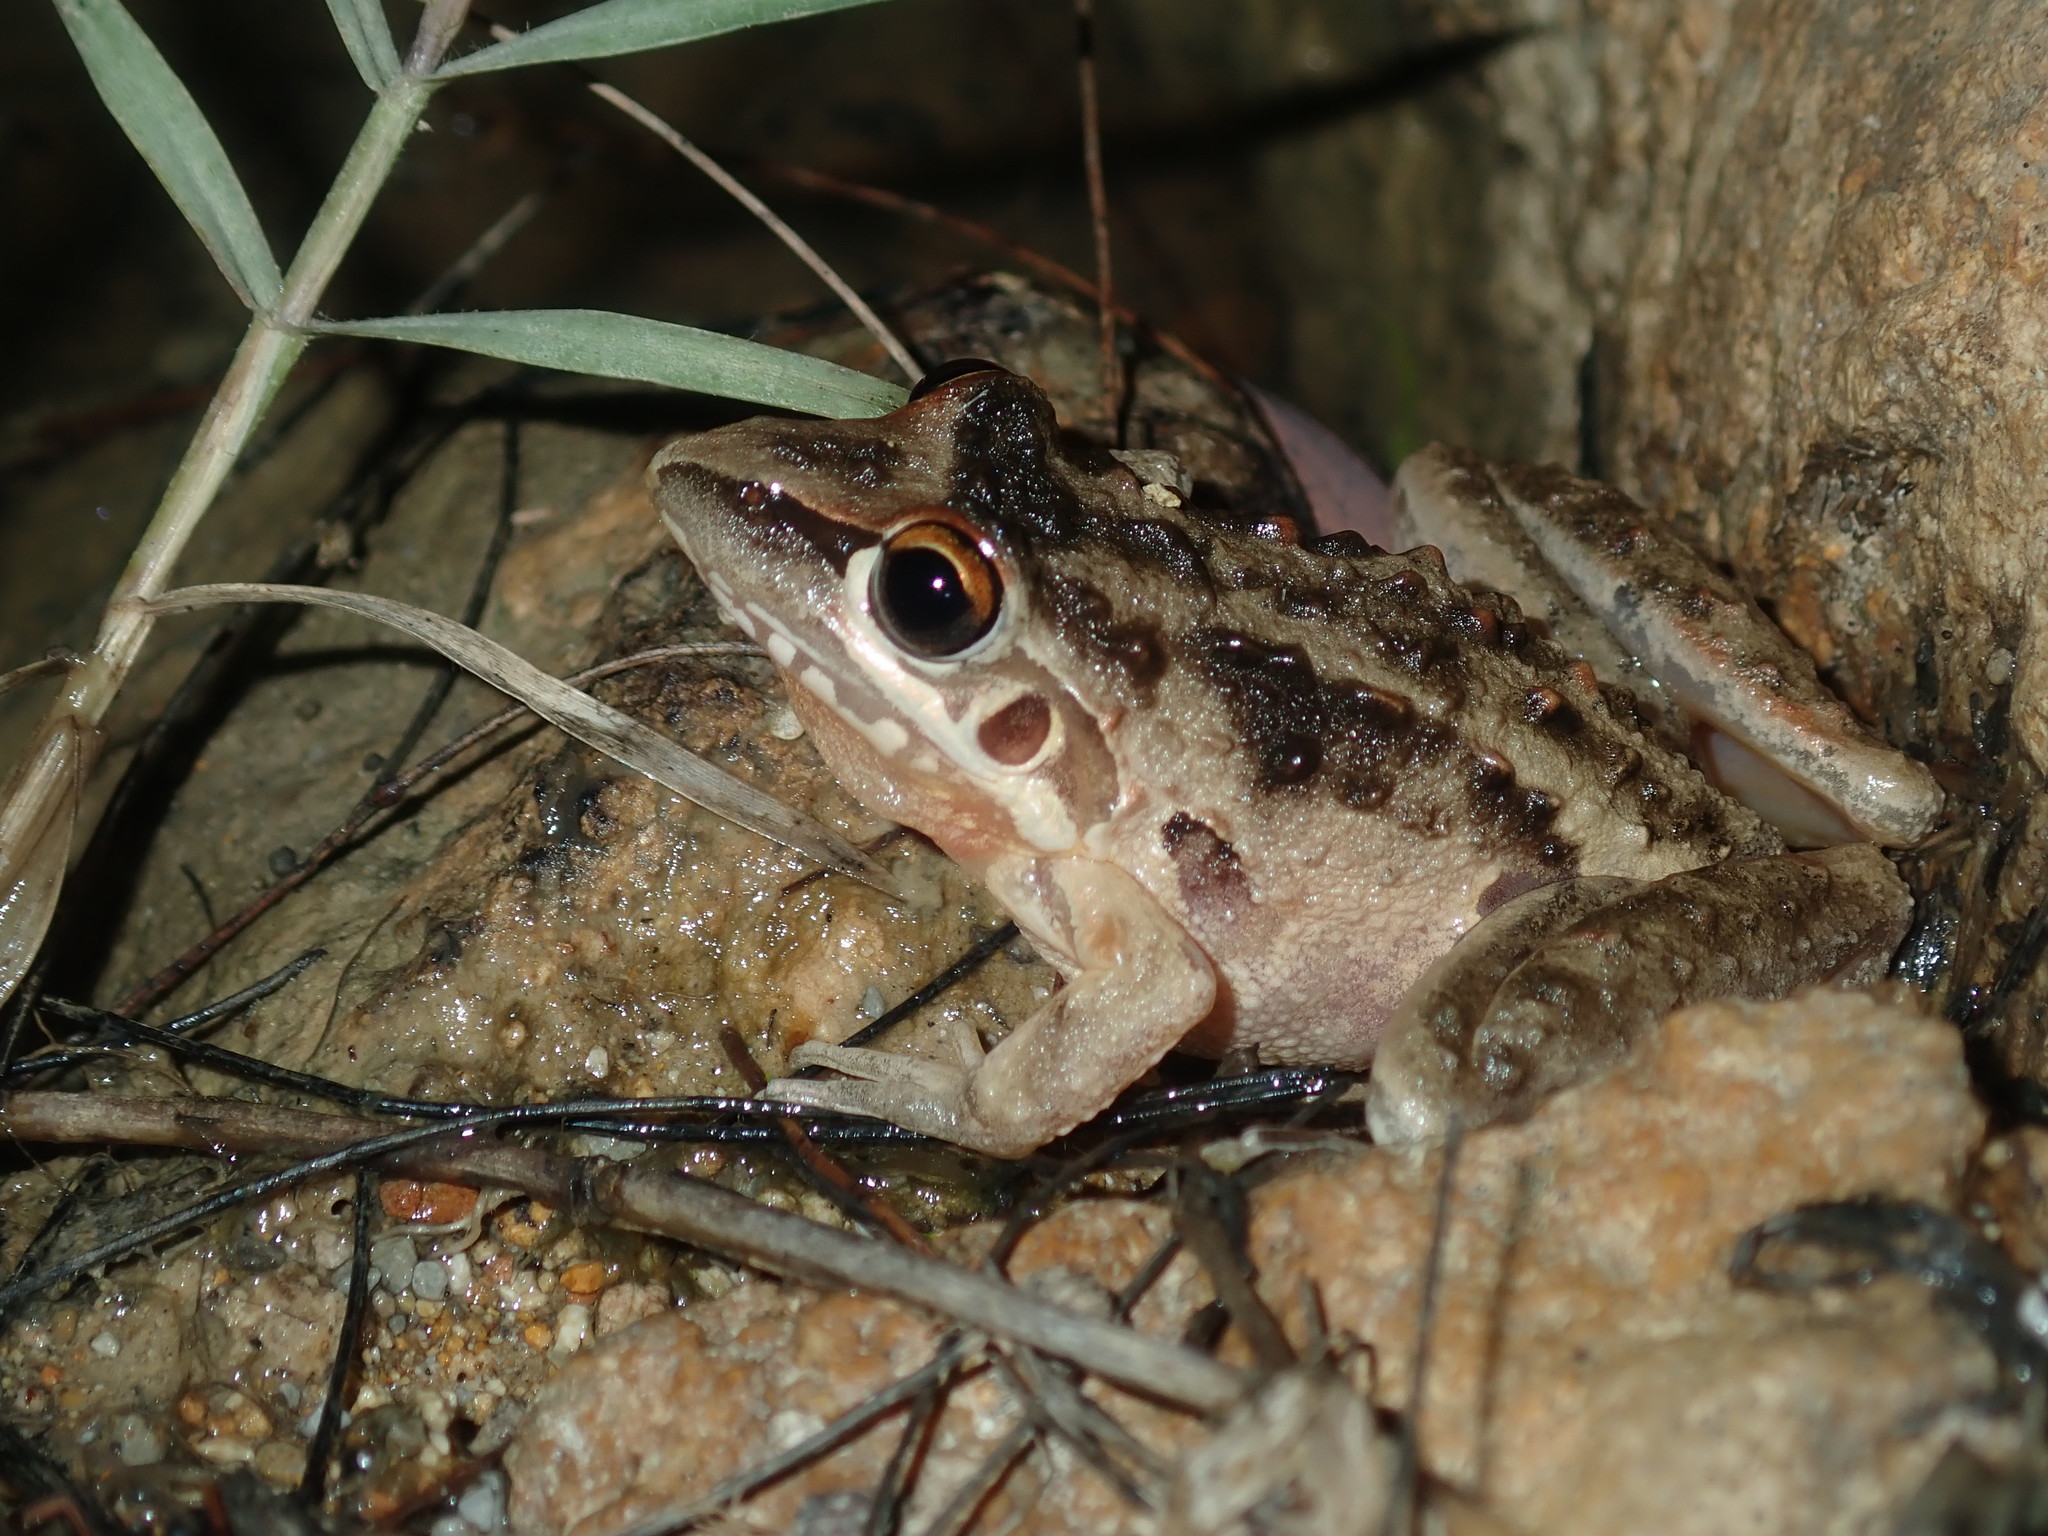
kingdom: Animalia
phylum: Chordata
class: Amphibia
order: Anura
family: Pelodryadidae
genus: Litoria
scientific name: Litoria freycineti
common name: Freycinet’s frog
